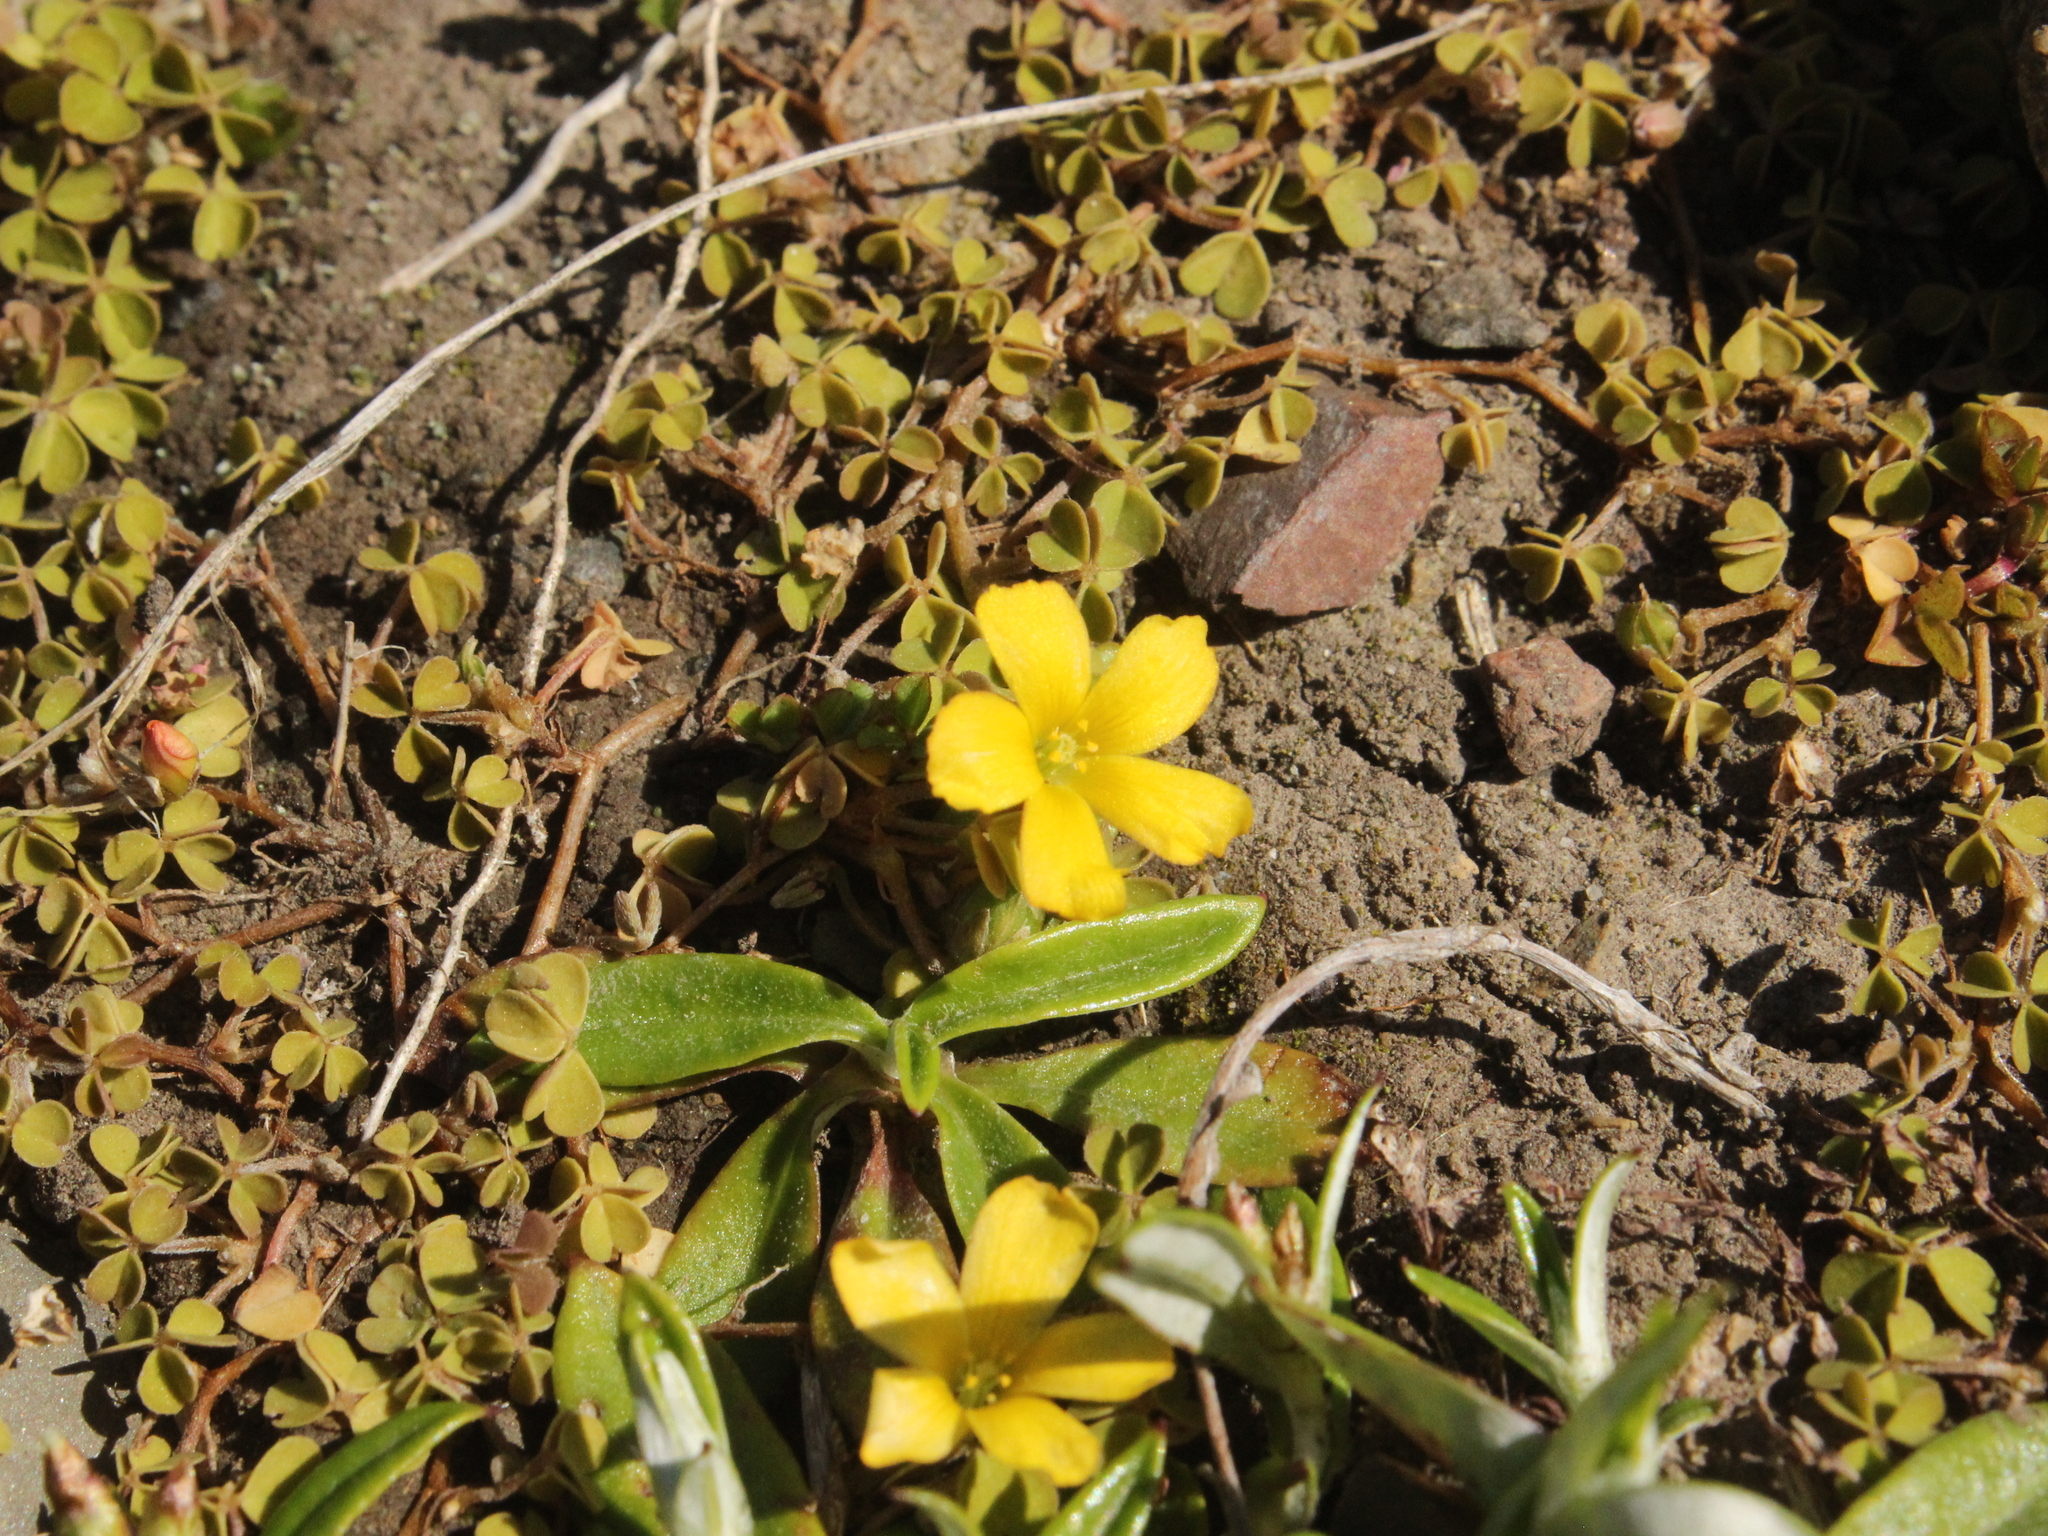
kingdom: Plantae
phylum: Tracheophyta
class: Magnoliopsida
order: Oxalidales
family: Oxalidaceae
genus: Oxalis
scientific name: Oxalis exilis
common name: Least yellow-sorrel
